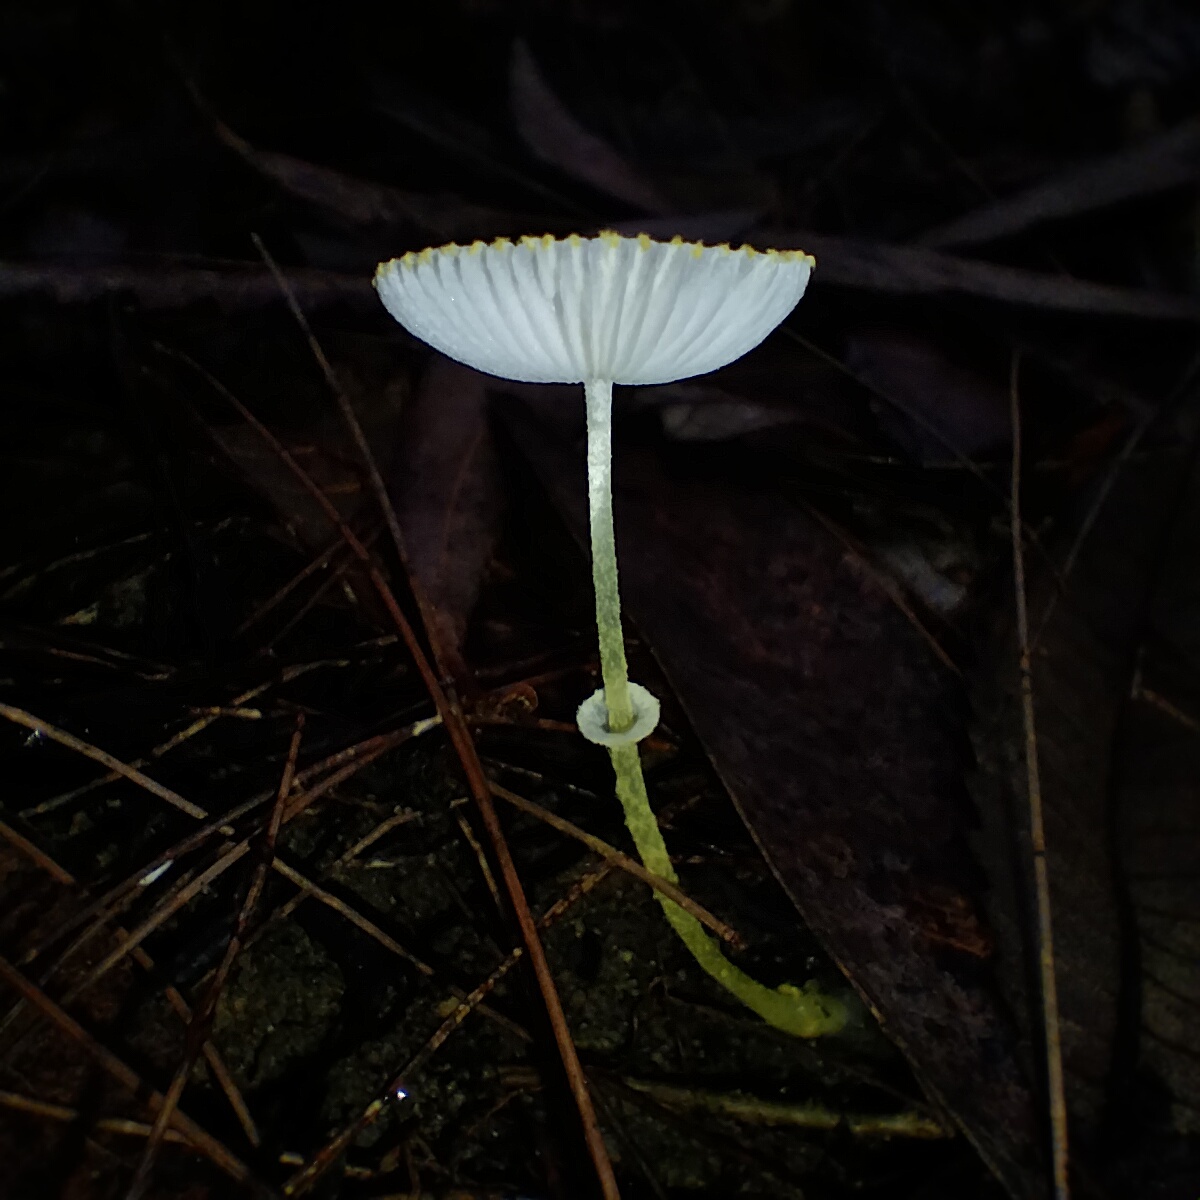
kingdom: Fungi
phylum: Basidiomycota
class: Agaricomycetes
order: Agaricales
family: Agaricaceae
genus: Leucocoprinus
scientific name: Leucocoprinus fragilissimus
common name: Fragile dapperling
